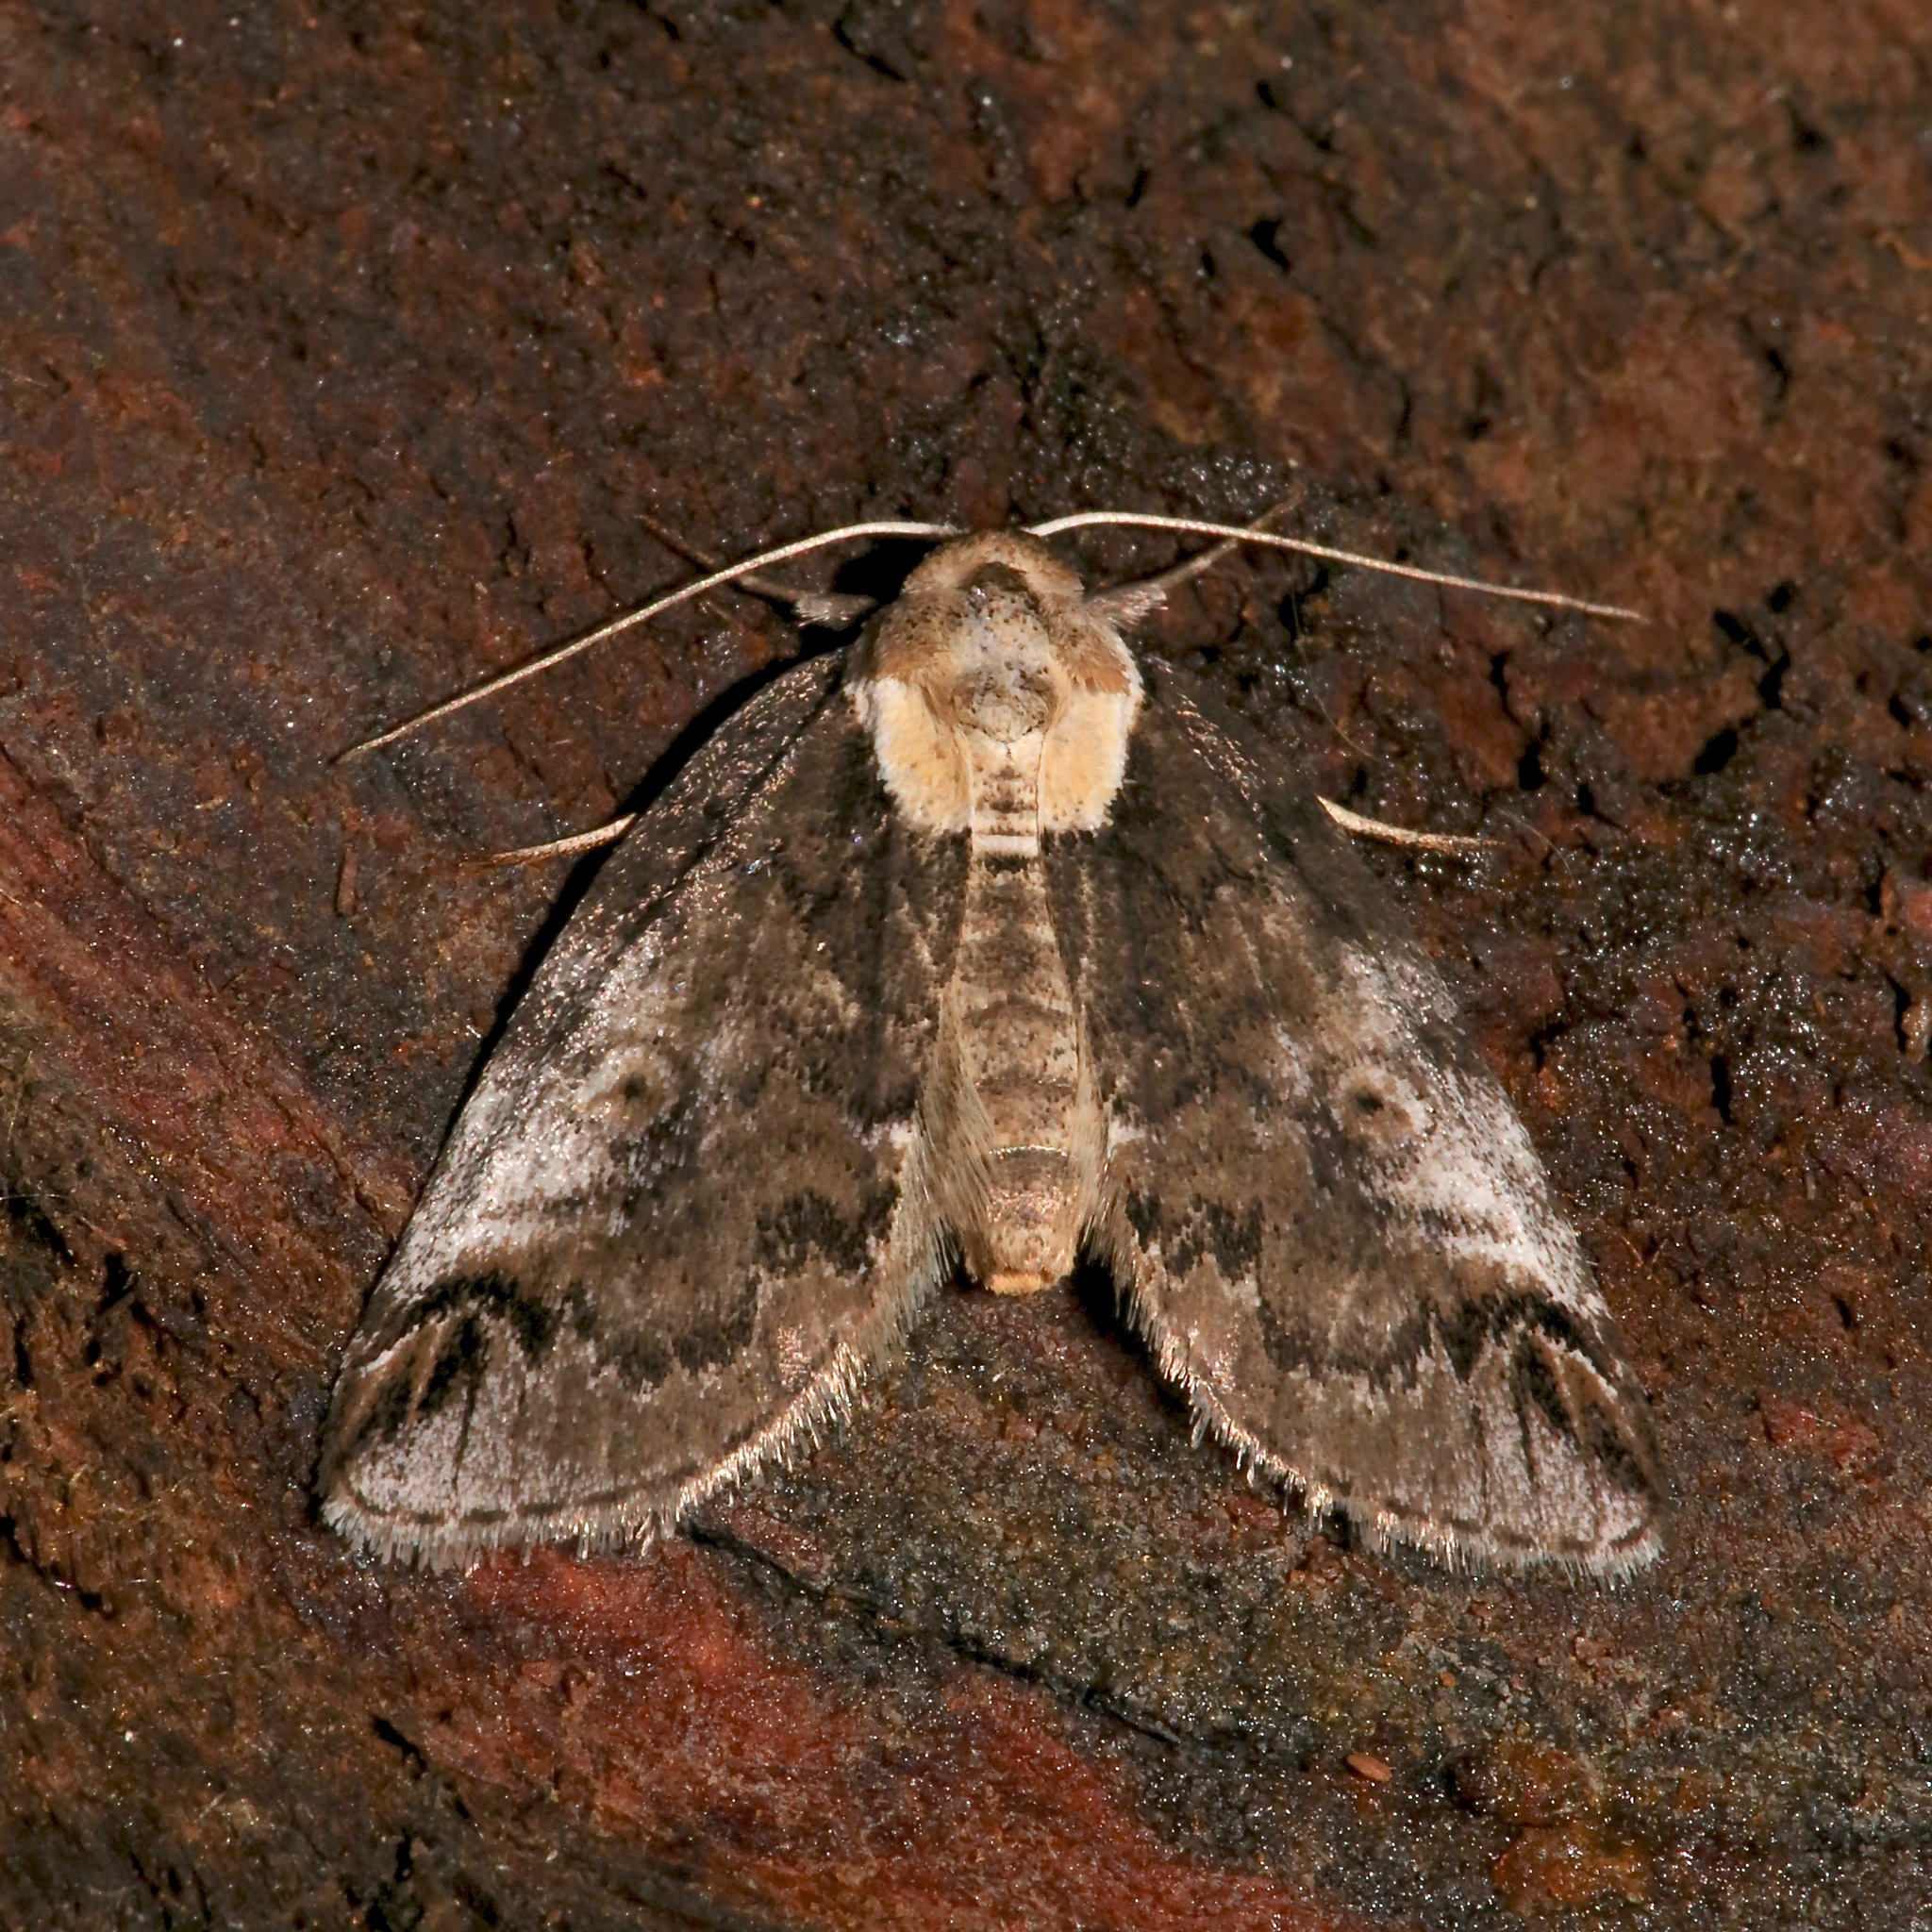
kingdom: Animalia
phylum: Arthropoda
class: Insecta
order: Lepidoptera
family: Nolidae
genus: Baileya
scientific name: Baileya ophthalmica
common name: Eyed baileya moth
